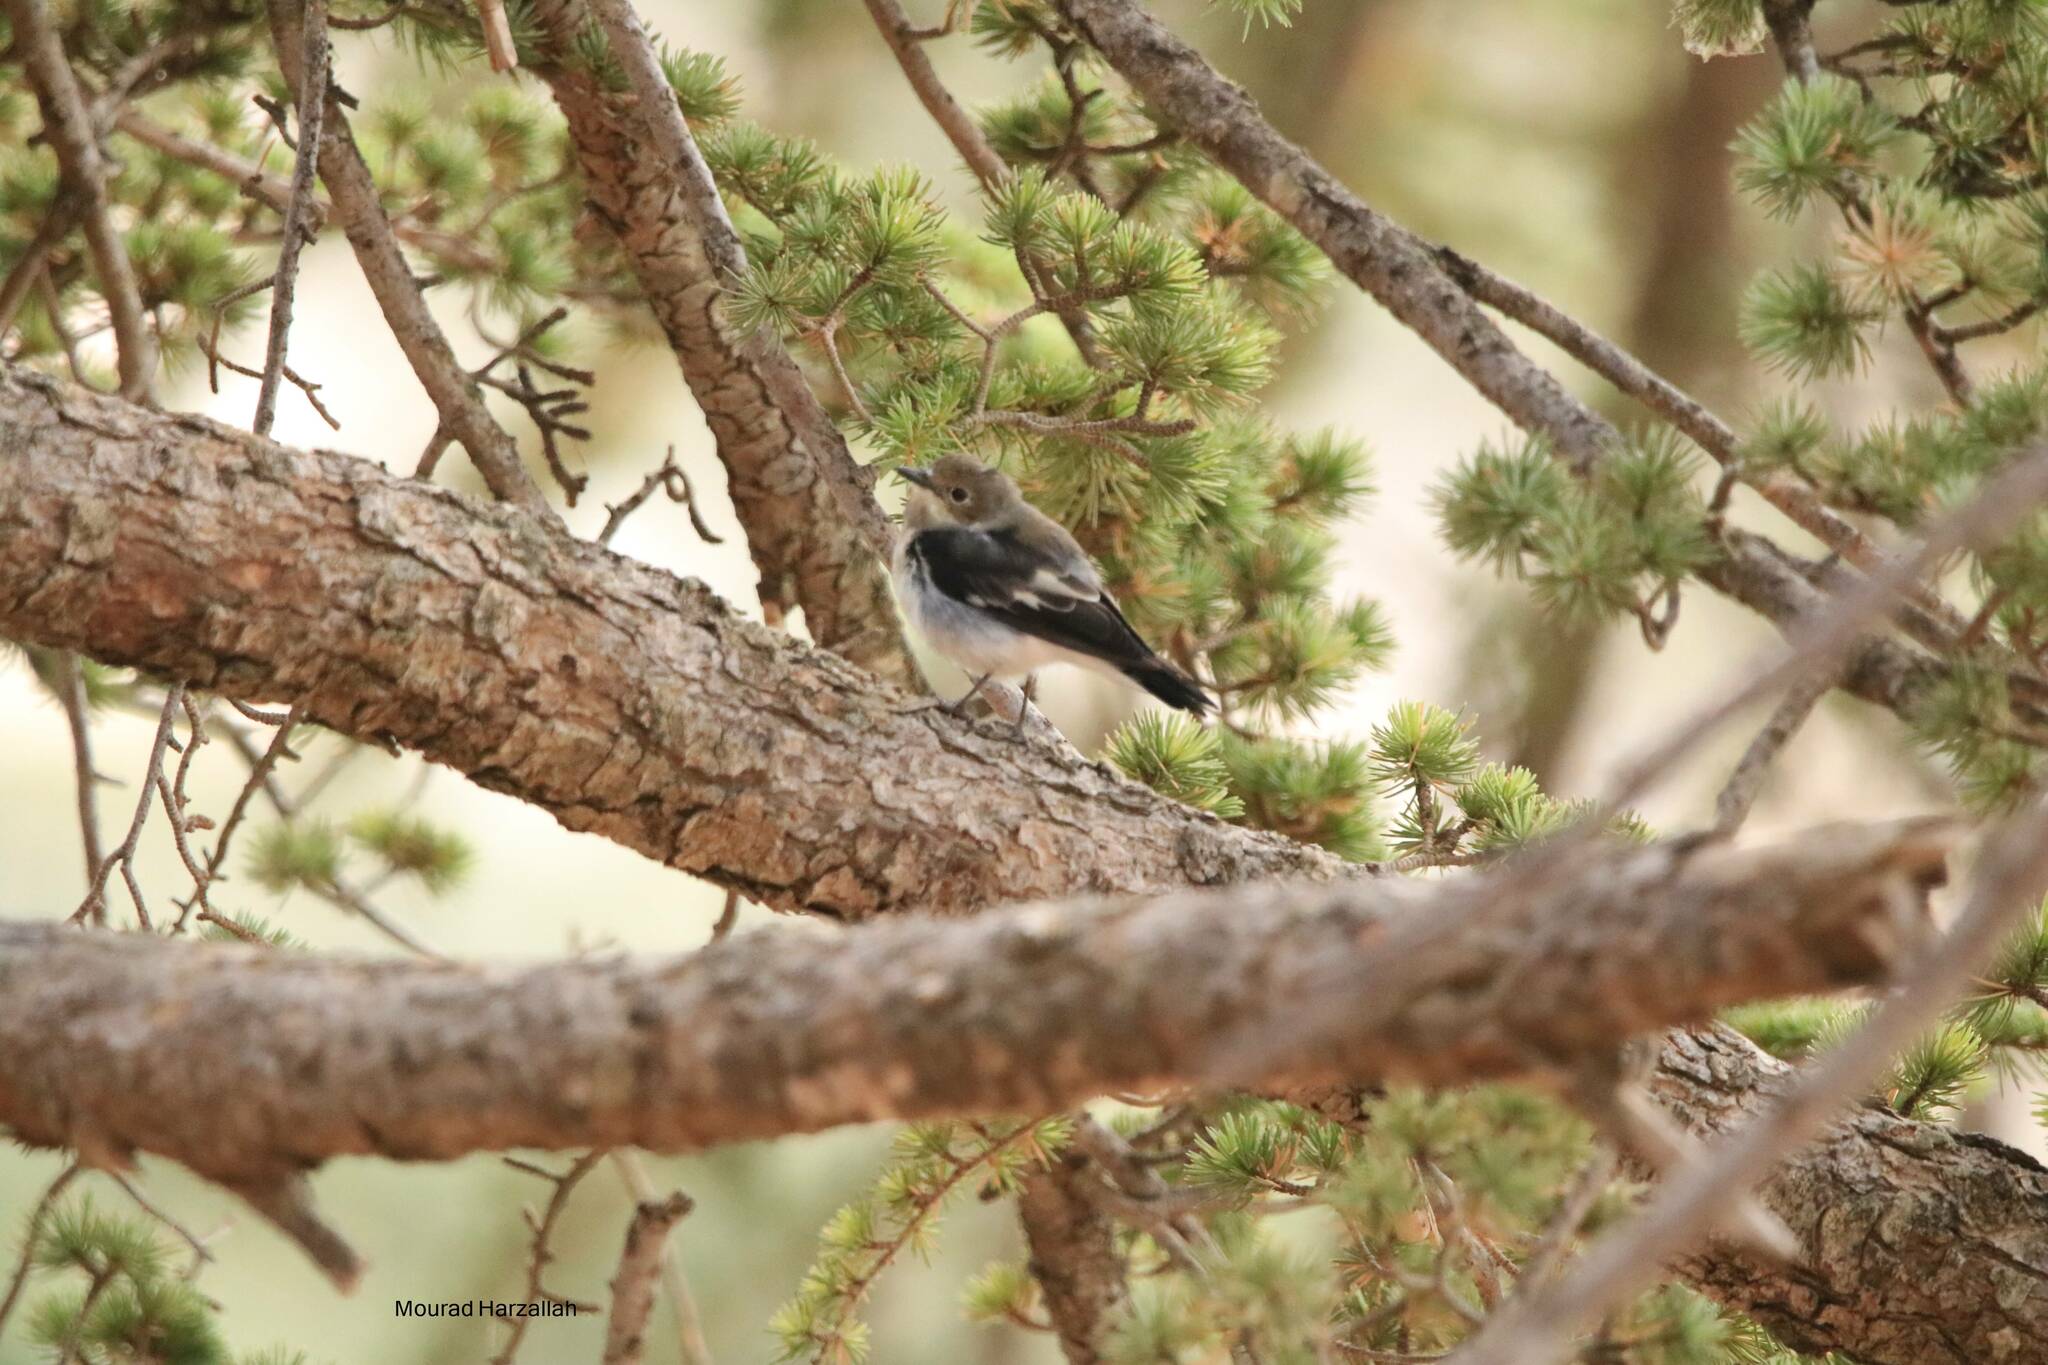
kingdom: Animalia
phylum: Chordata
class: Aves
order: Passeriformes
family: Muscicapidae
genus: Ficedula
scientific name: Ficedula hypoleuca
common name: European pied flycatcher
